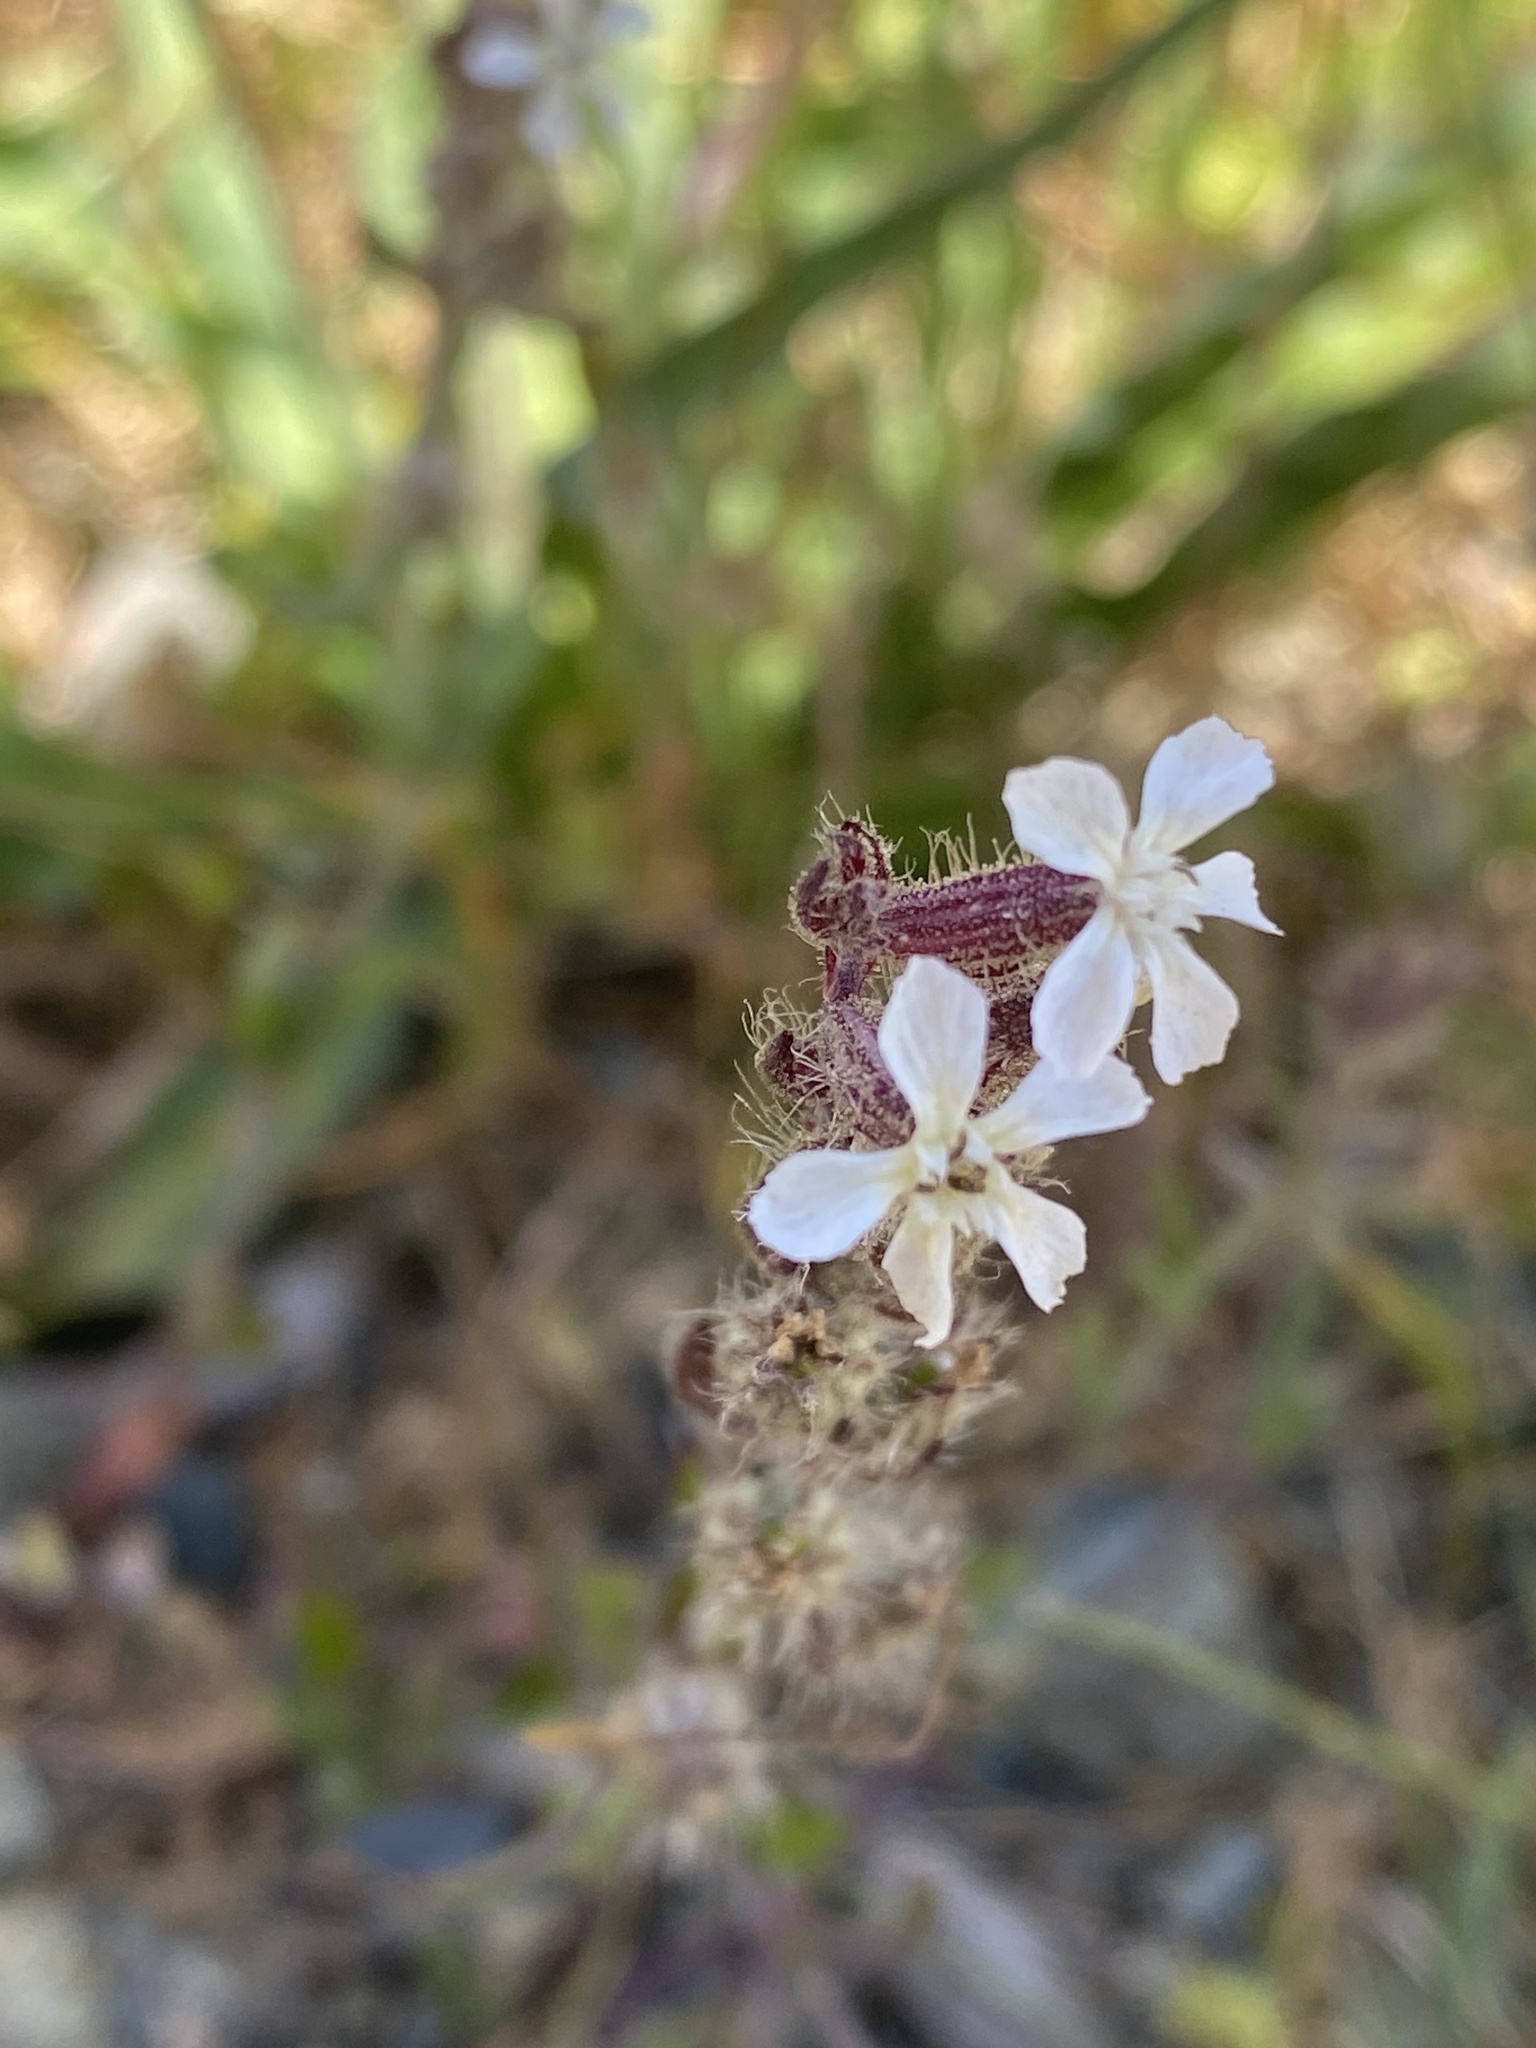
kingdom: Plantae
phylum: Tracheophyta
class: Magnoliopsida
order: Caryophyllales
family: Caryophyllaceae
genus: Silene
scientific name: Silene gallica
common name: Small-flowered catchfly
